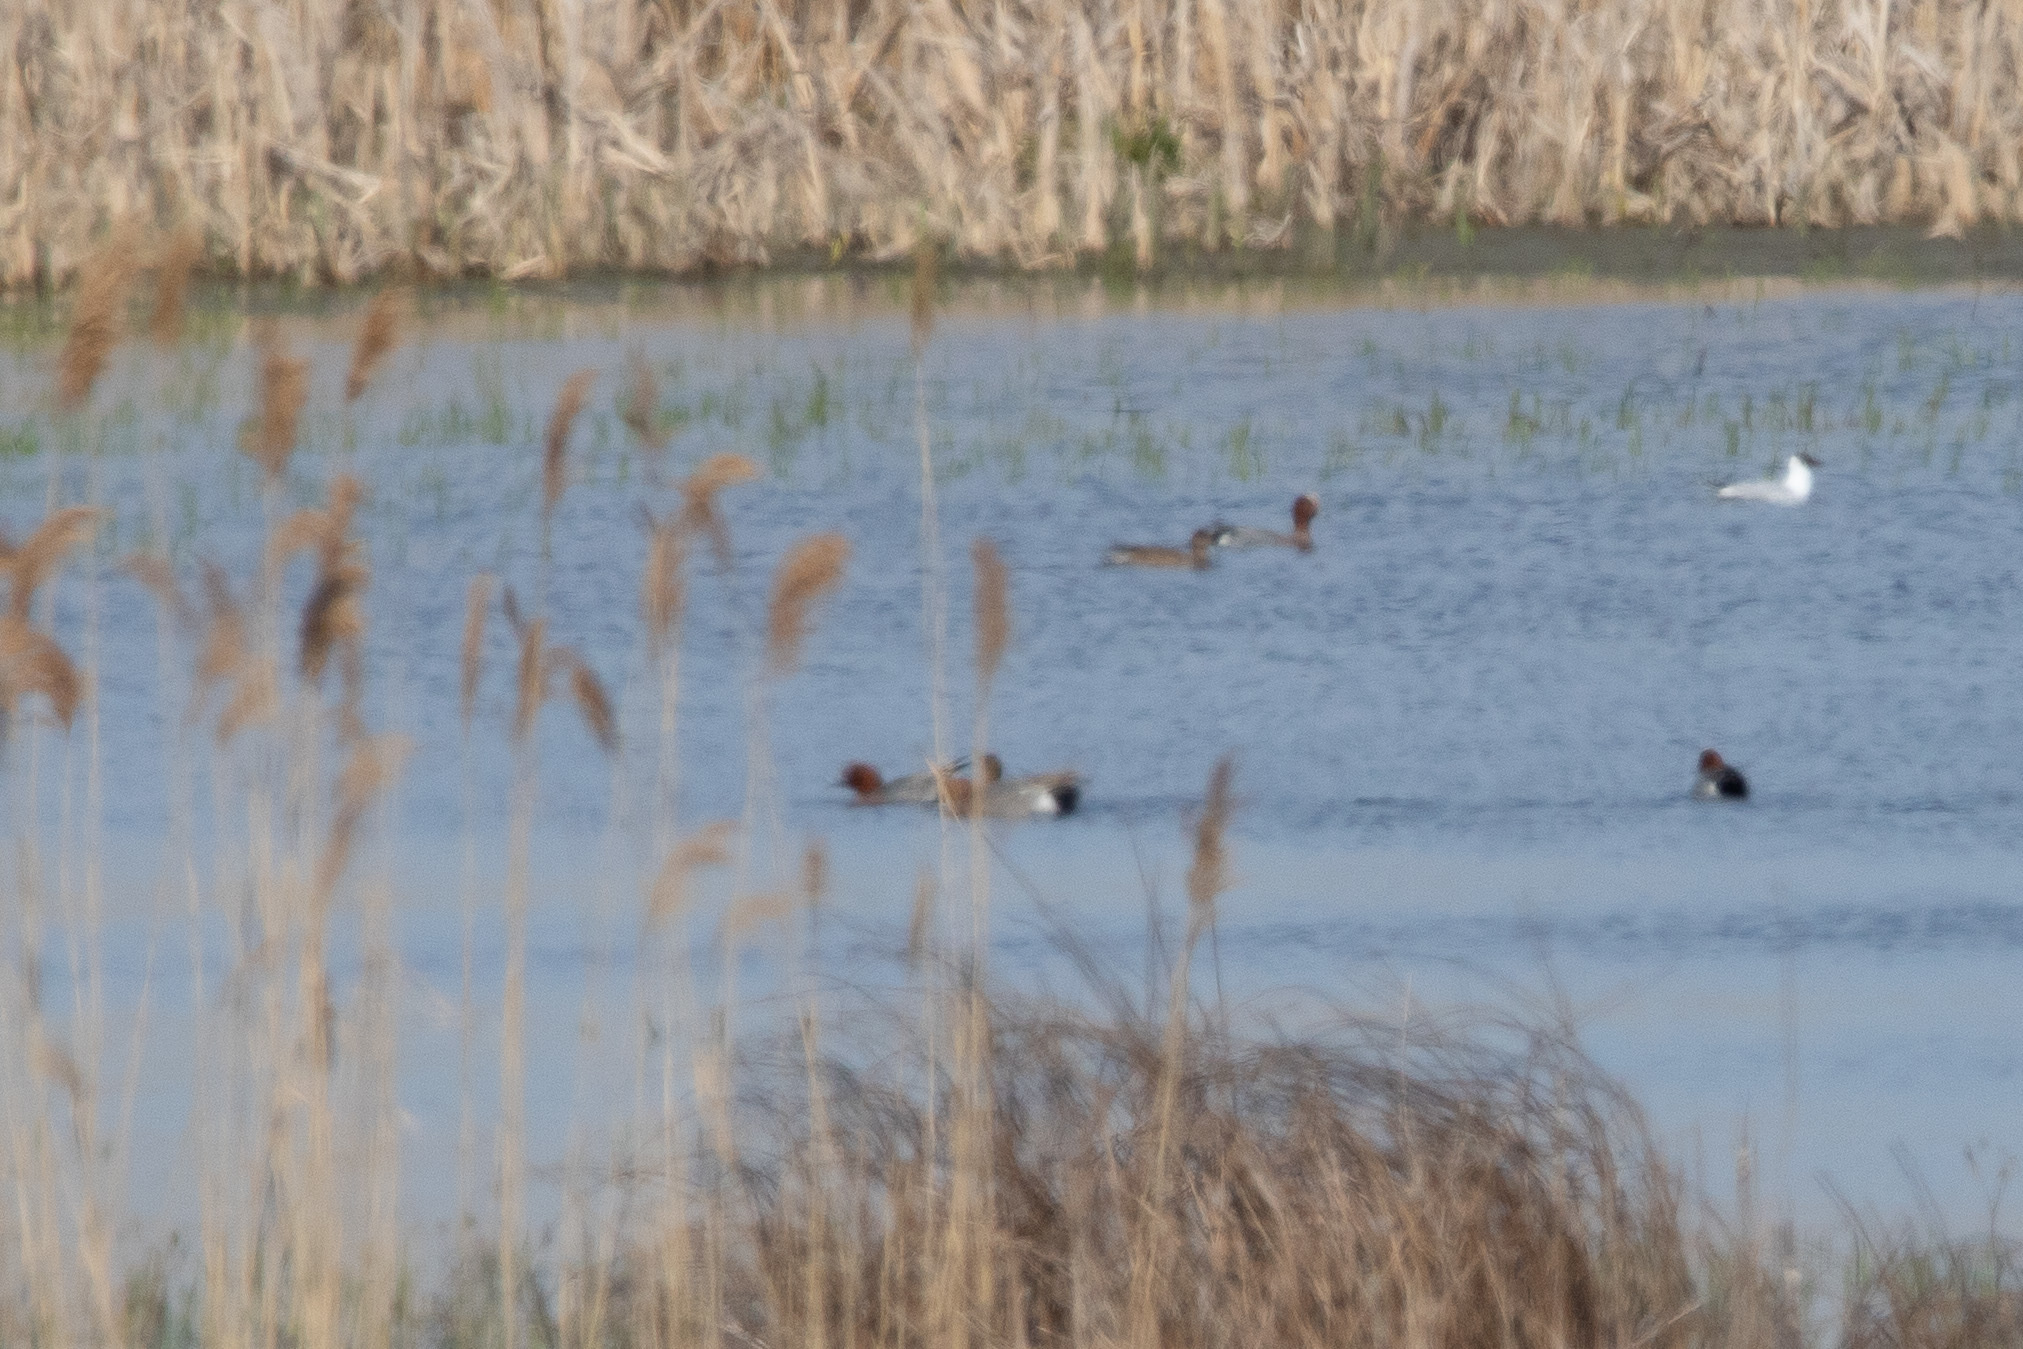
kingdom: Animalia
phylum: Chordata
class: Aves
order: Anseriformes
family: Anatidae
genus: Mareca
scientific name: Mareca penelope
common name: Eurasian wigeon
